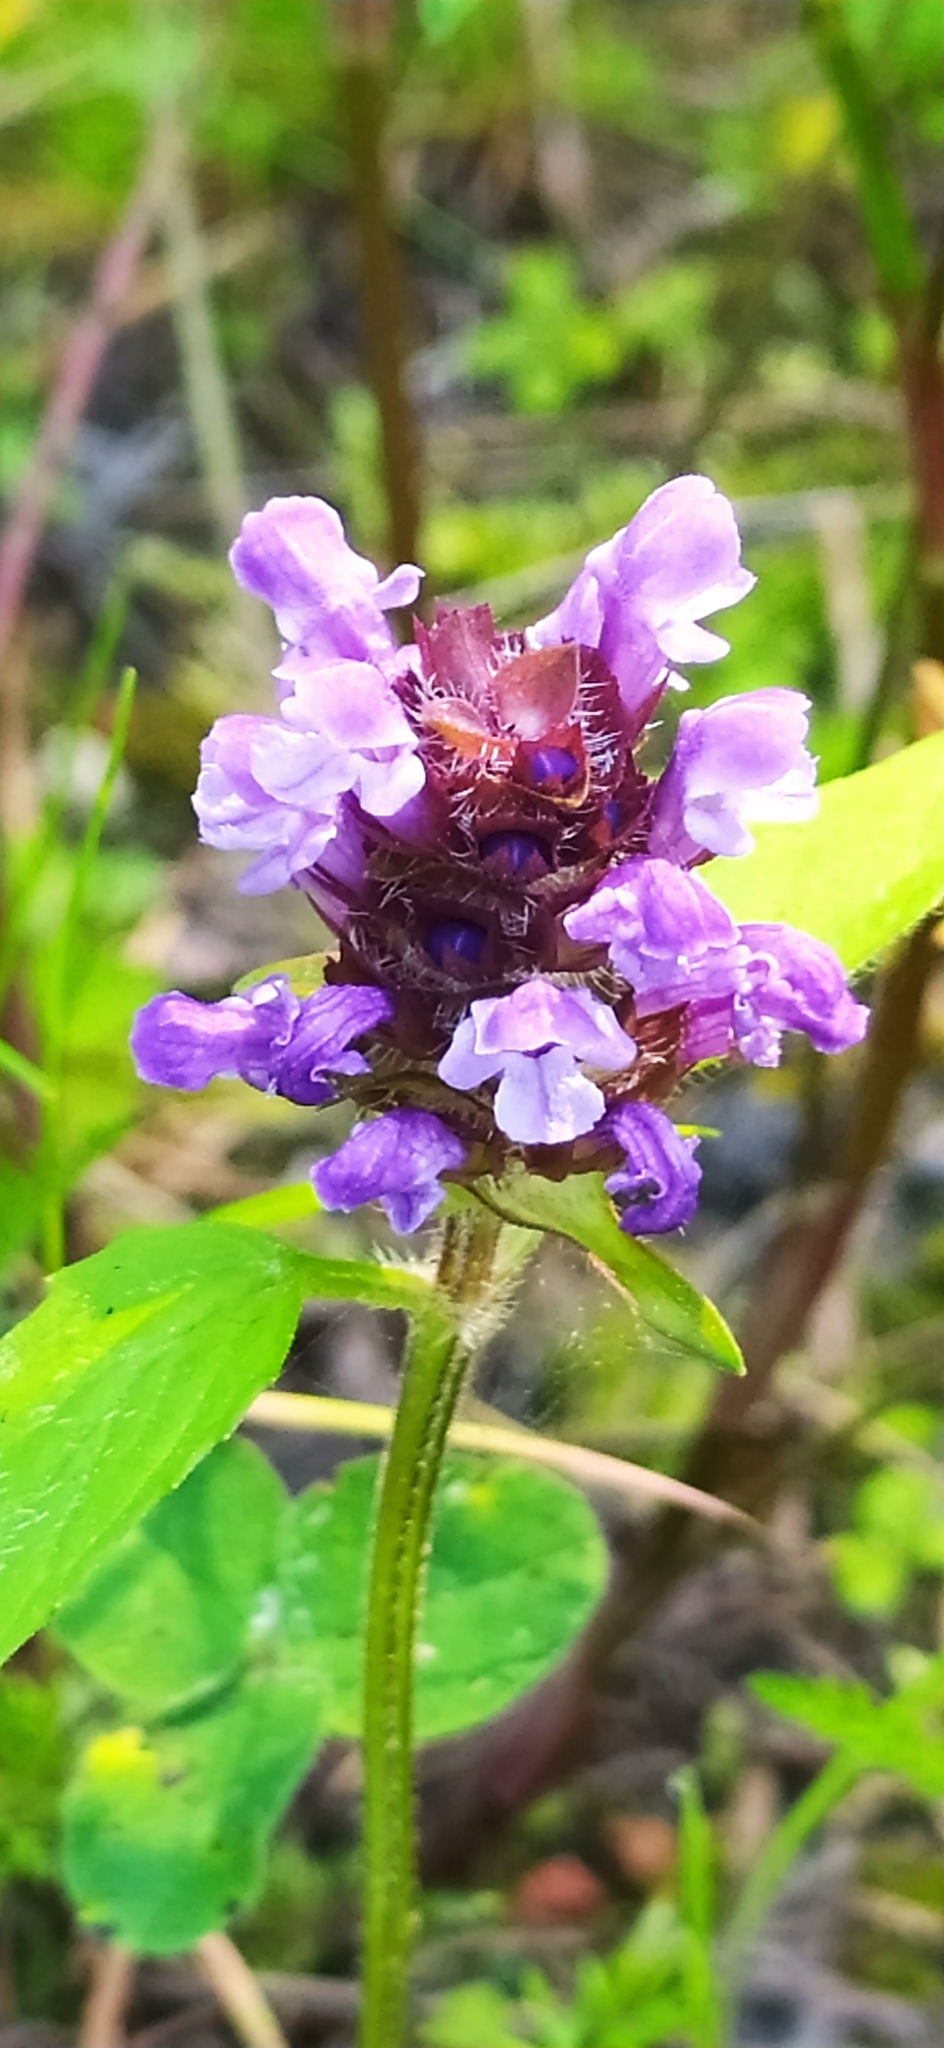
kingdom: Plantae
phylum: Tracheophyta
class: Magnoliopsida
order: Lamiales
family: Lamiaceae
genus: Prunella
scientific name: Prunella vulgaris
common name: Heal-all
